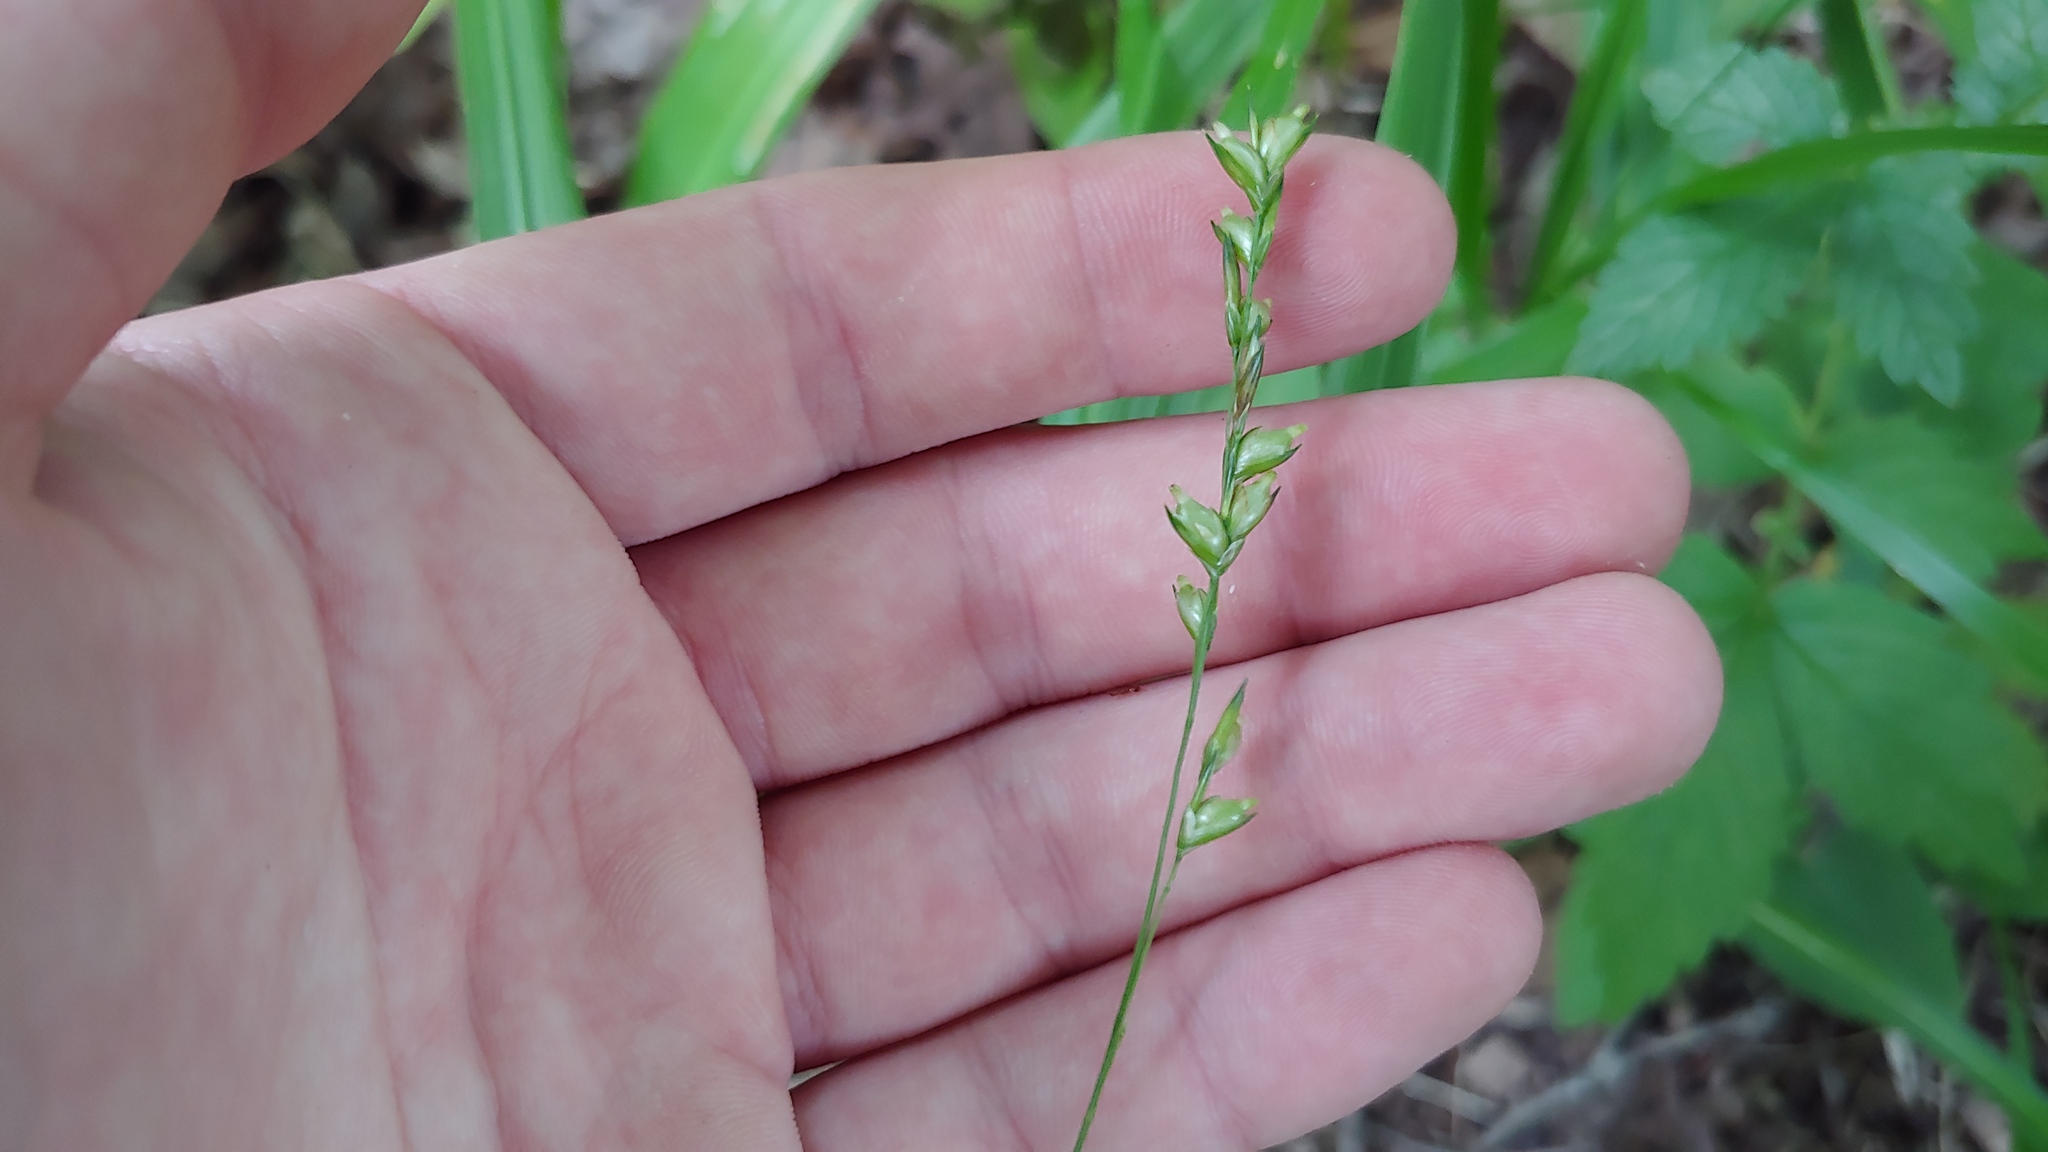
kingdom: Plantae
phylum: Tracheophyta
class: Liliopsida
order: Poales
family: Poaceae
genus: Diarrhena
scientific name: Diarrhena obovata
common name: Beakgrass
